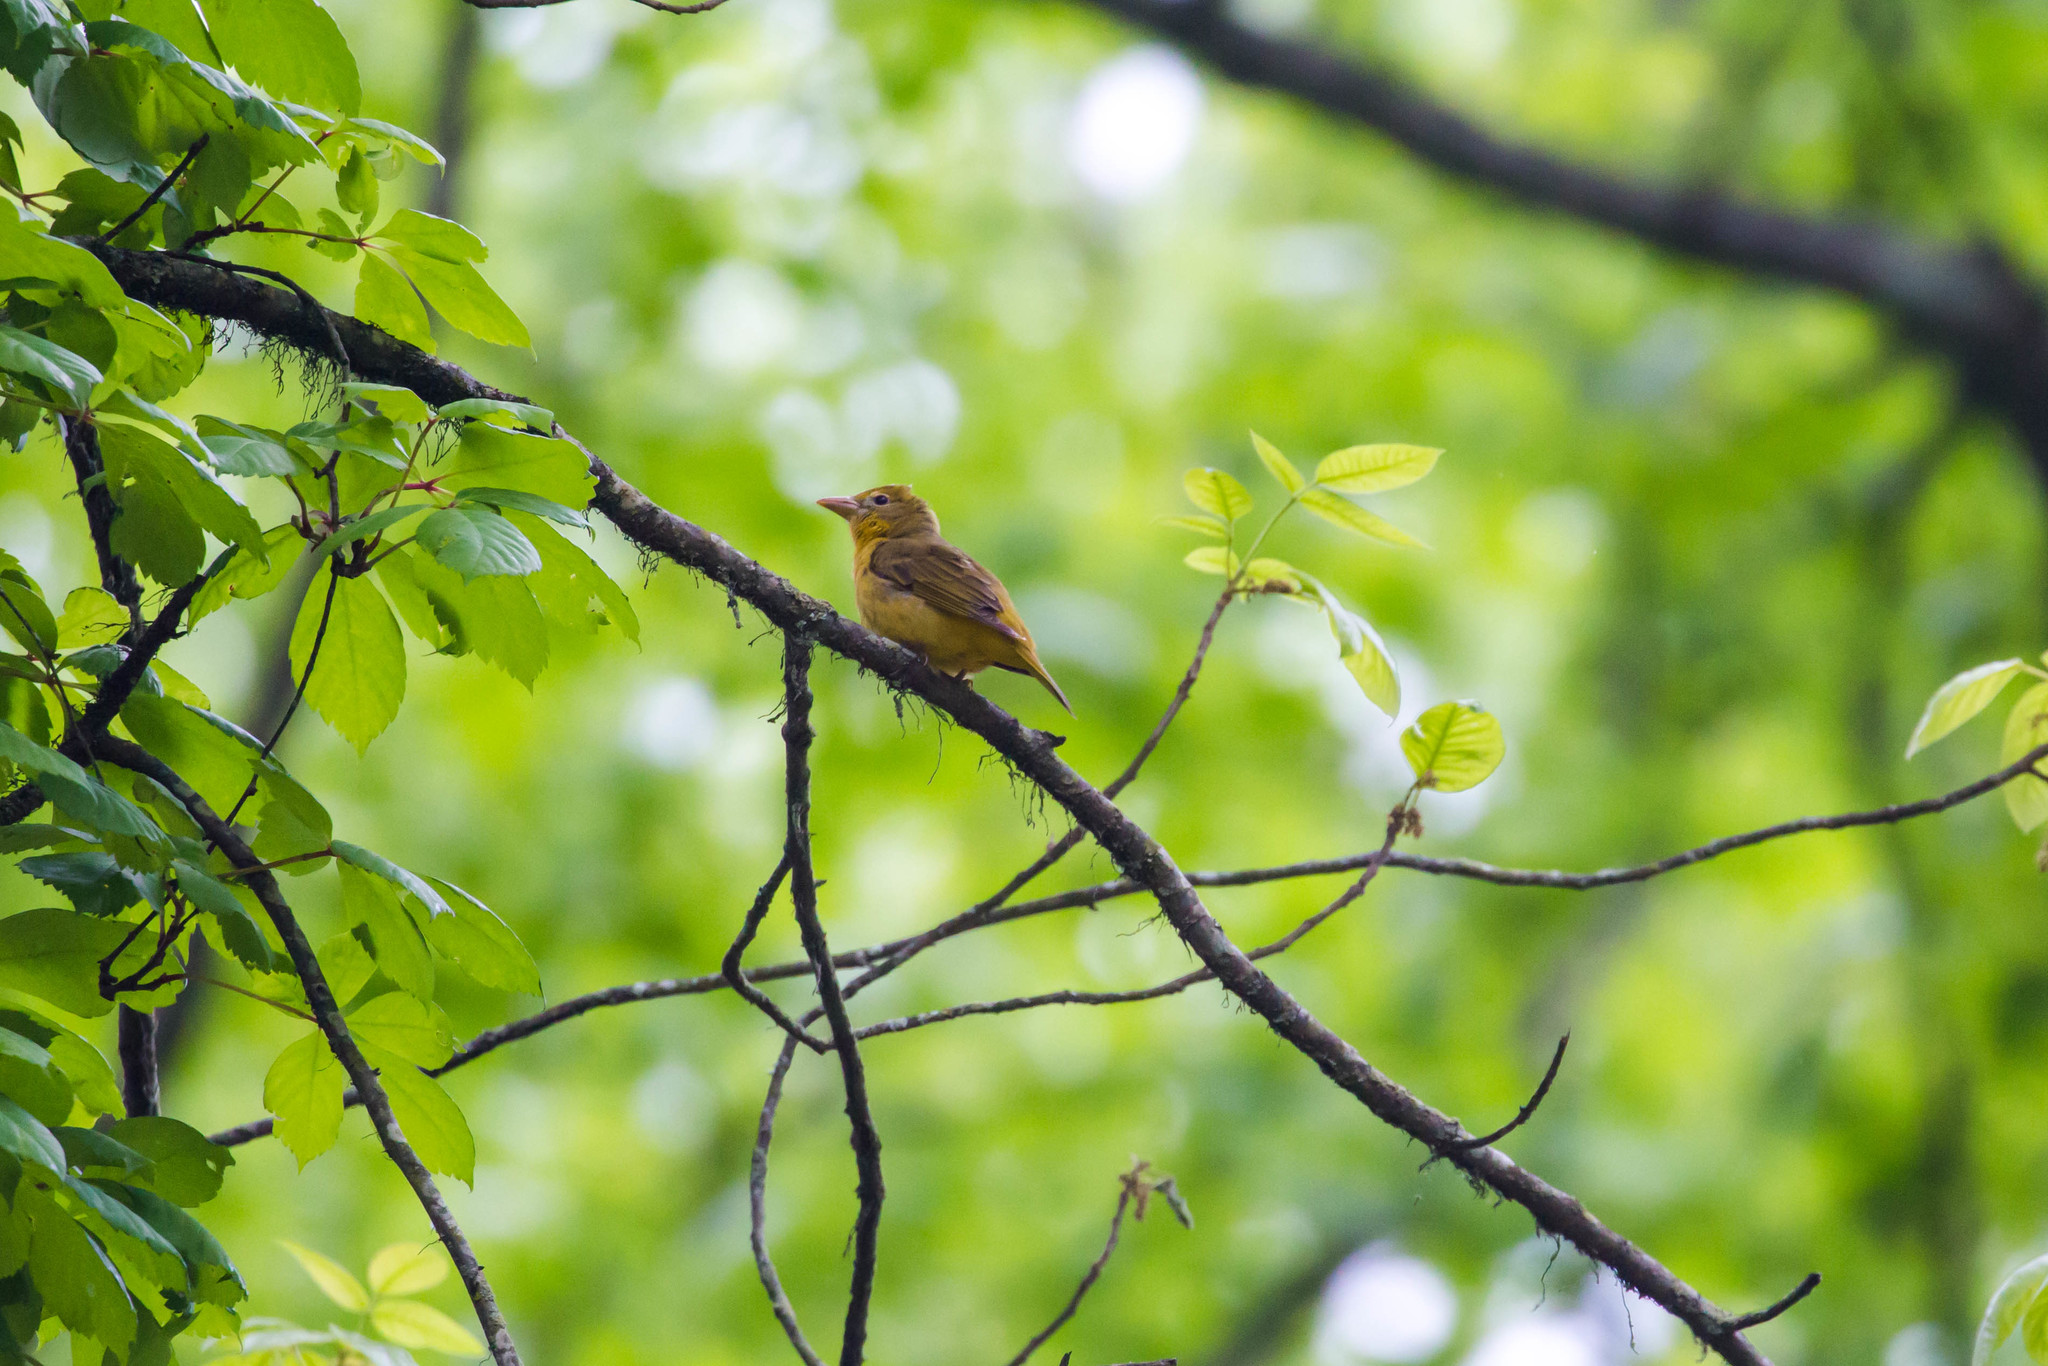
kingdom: Animalia
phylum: Chordata
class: Aves
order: Passeriformes
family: Cardinalidae
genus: Piranga
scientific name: Piranga rubra
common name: Summer tanager
